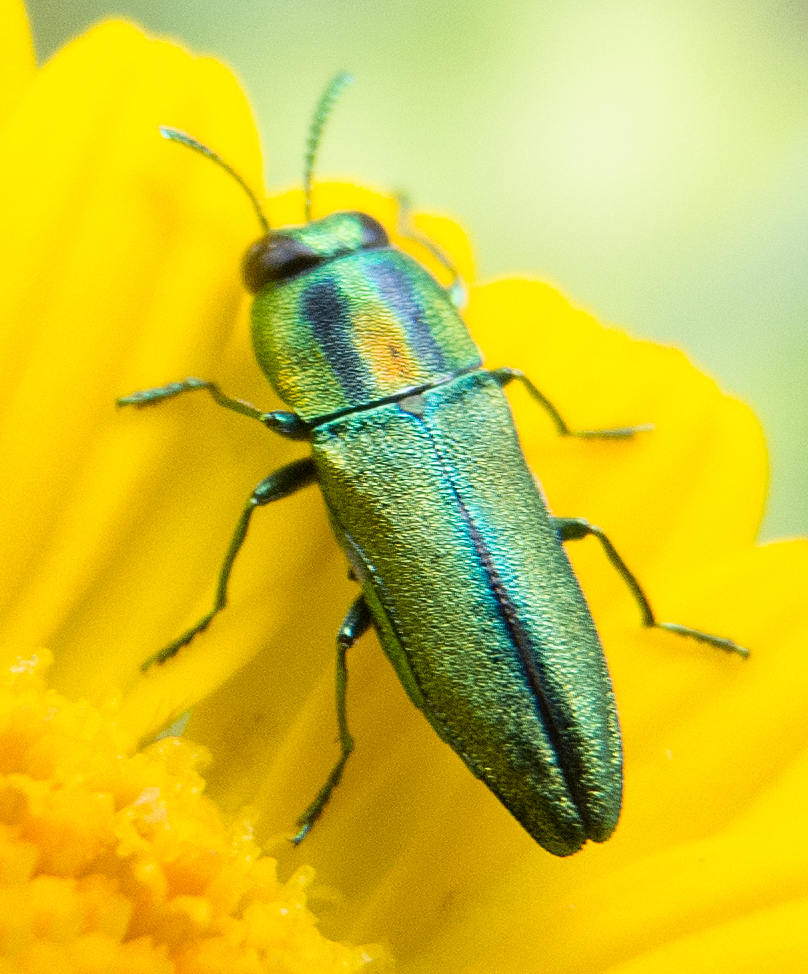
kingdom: Animalia
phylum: Arthropoda
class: Insecta
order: Coleoptera
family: Buprestidae
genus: Anthaxia
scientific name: Anthaxia scorzonerae
